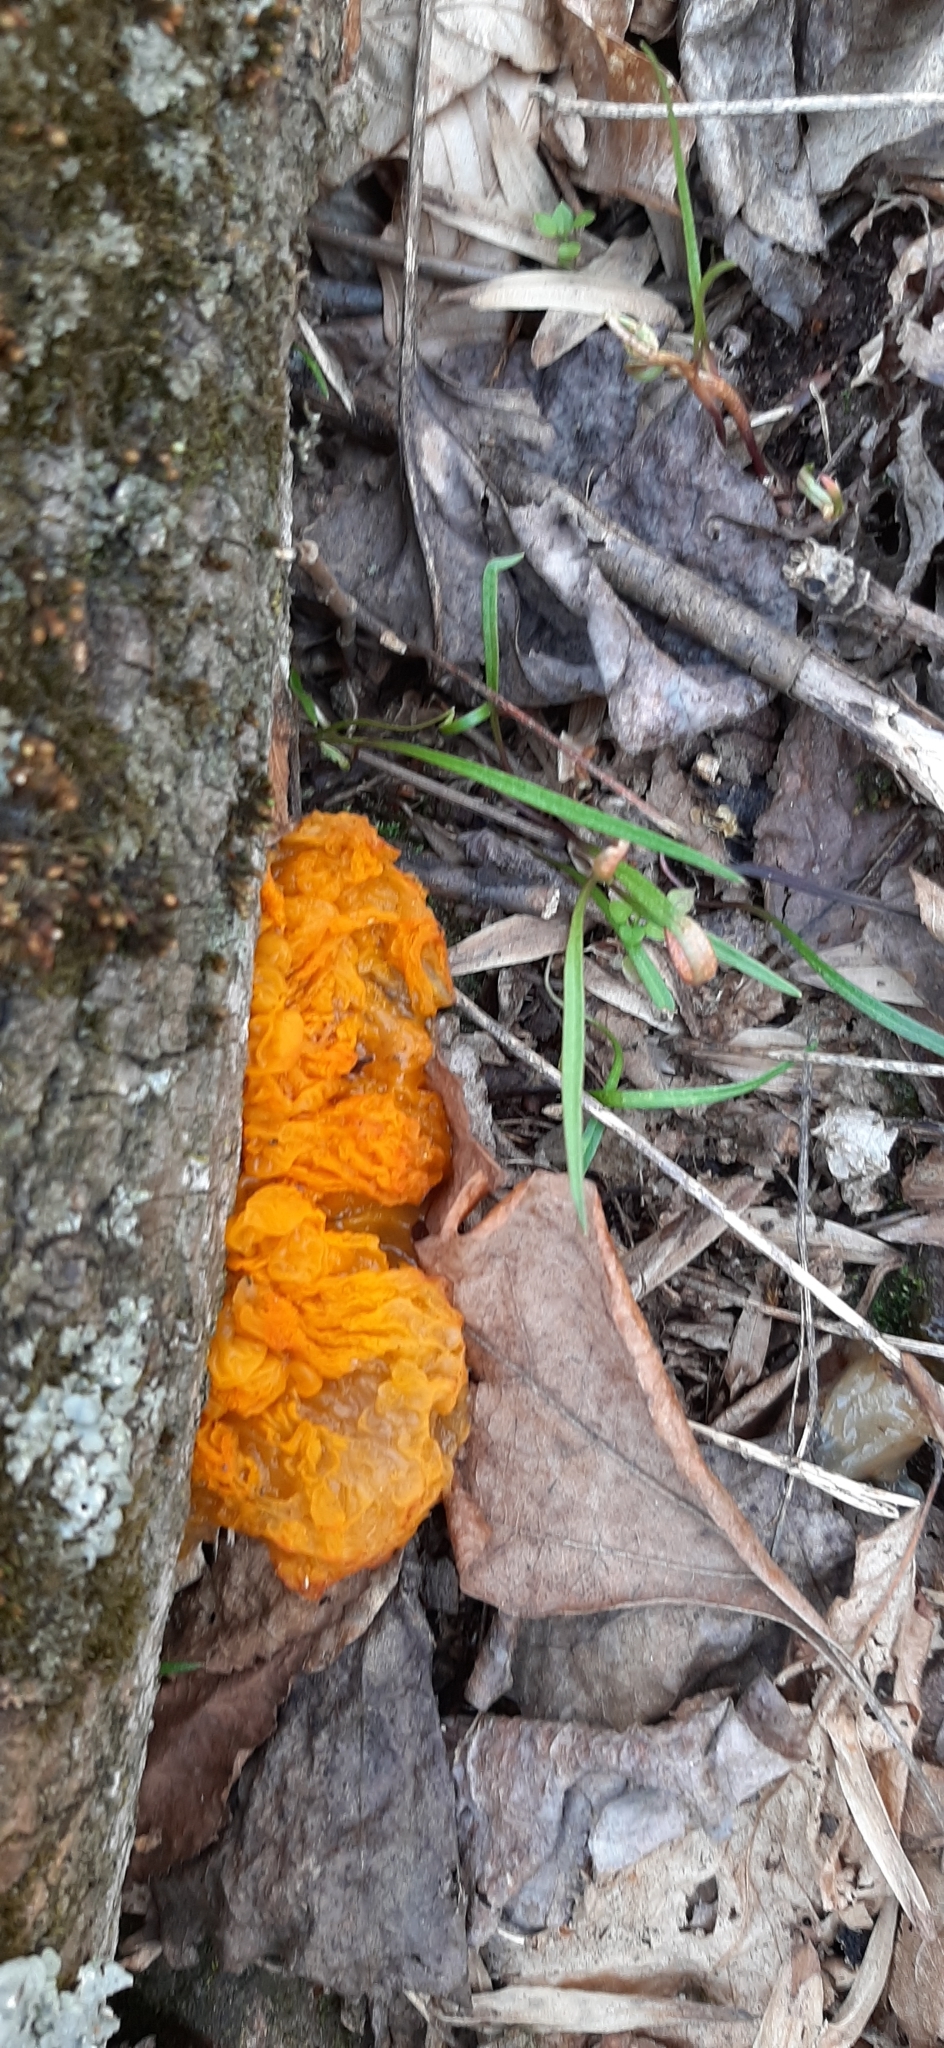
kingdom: Fungi
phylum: Basidiomycota
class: Tremellomycetes
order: Tremellales
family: Tremellaceae
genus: Tremella
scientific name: Tremella mesenterica
